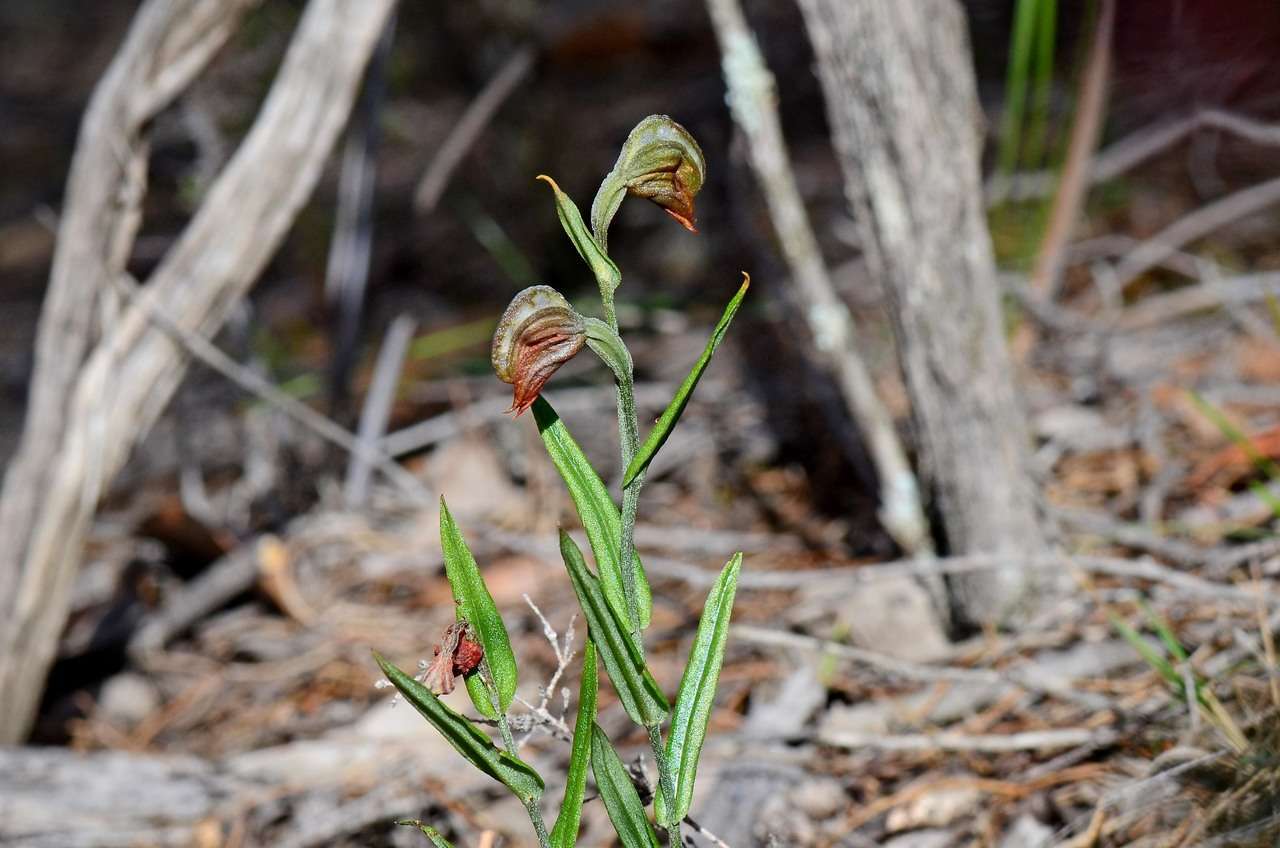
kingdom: Plantae
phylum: Tracheophyta
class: Liliopsida
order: Asparagales
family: Orchidaceae
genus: Pterostylis
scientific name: Pterostylis sanguinea
